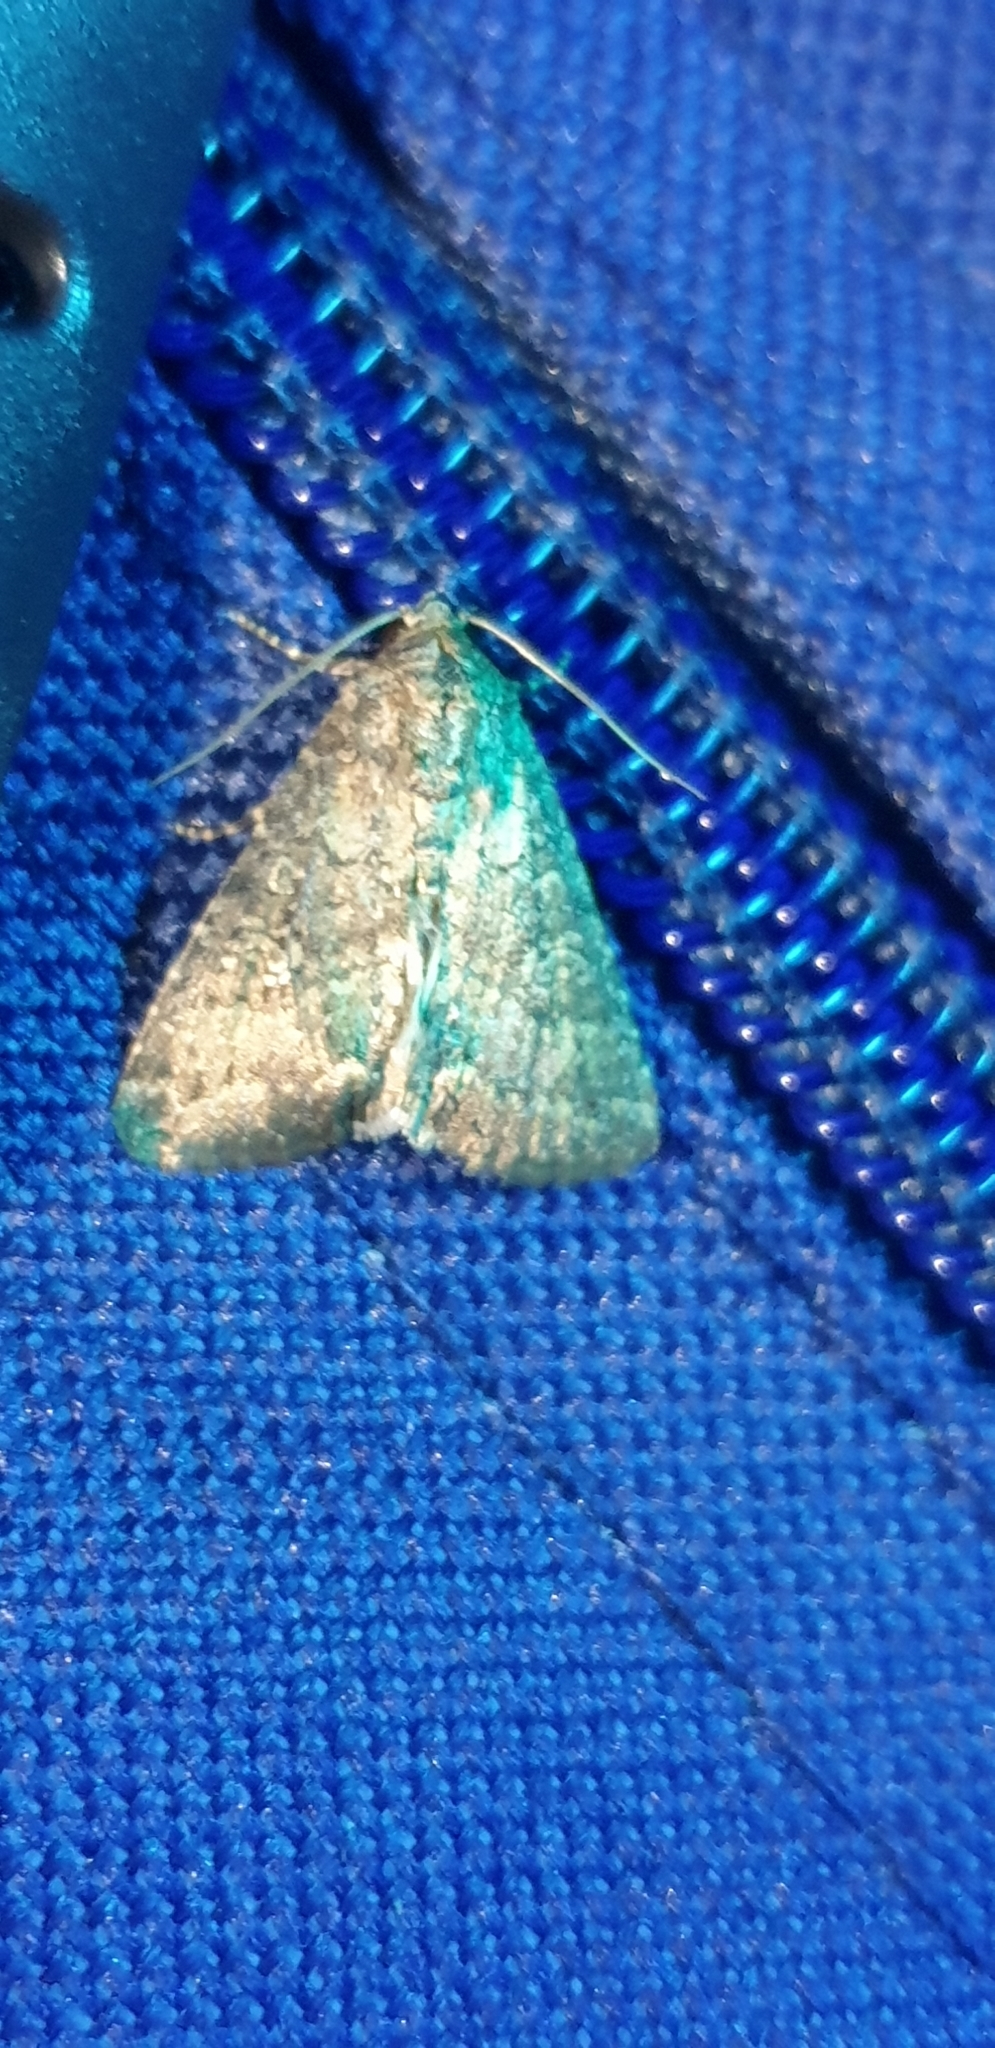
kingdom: Animalia
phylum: Arthropoda
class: Insecta
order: Lepidoptera
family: Noctuidae
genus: Condica
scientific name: Condica illecta
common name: Cutworm
